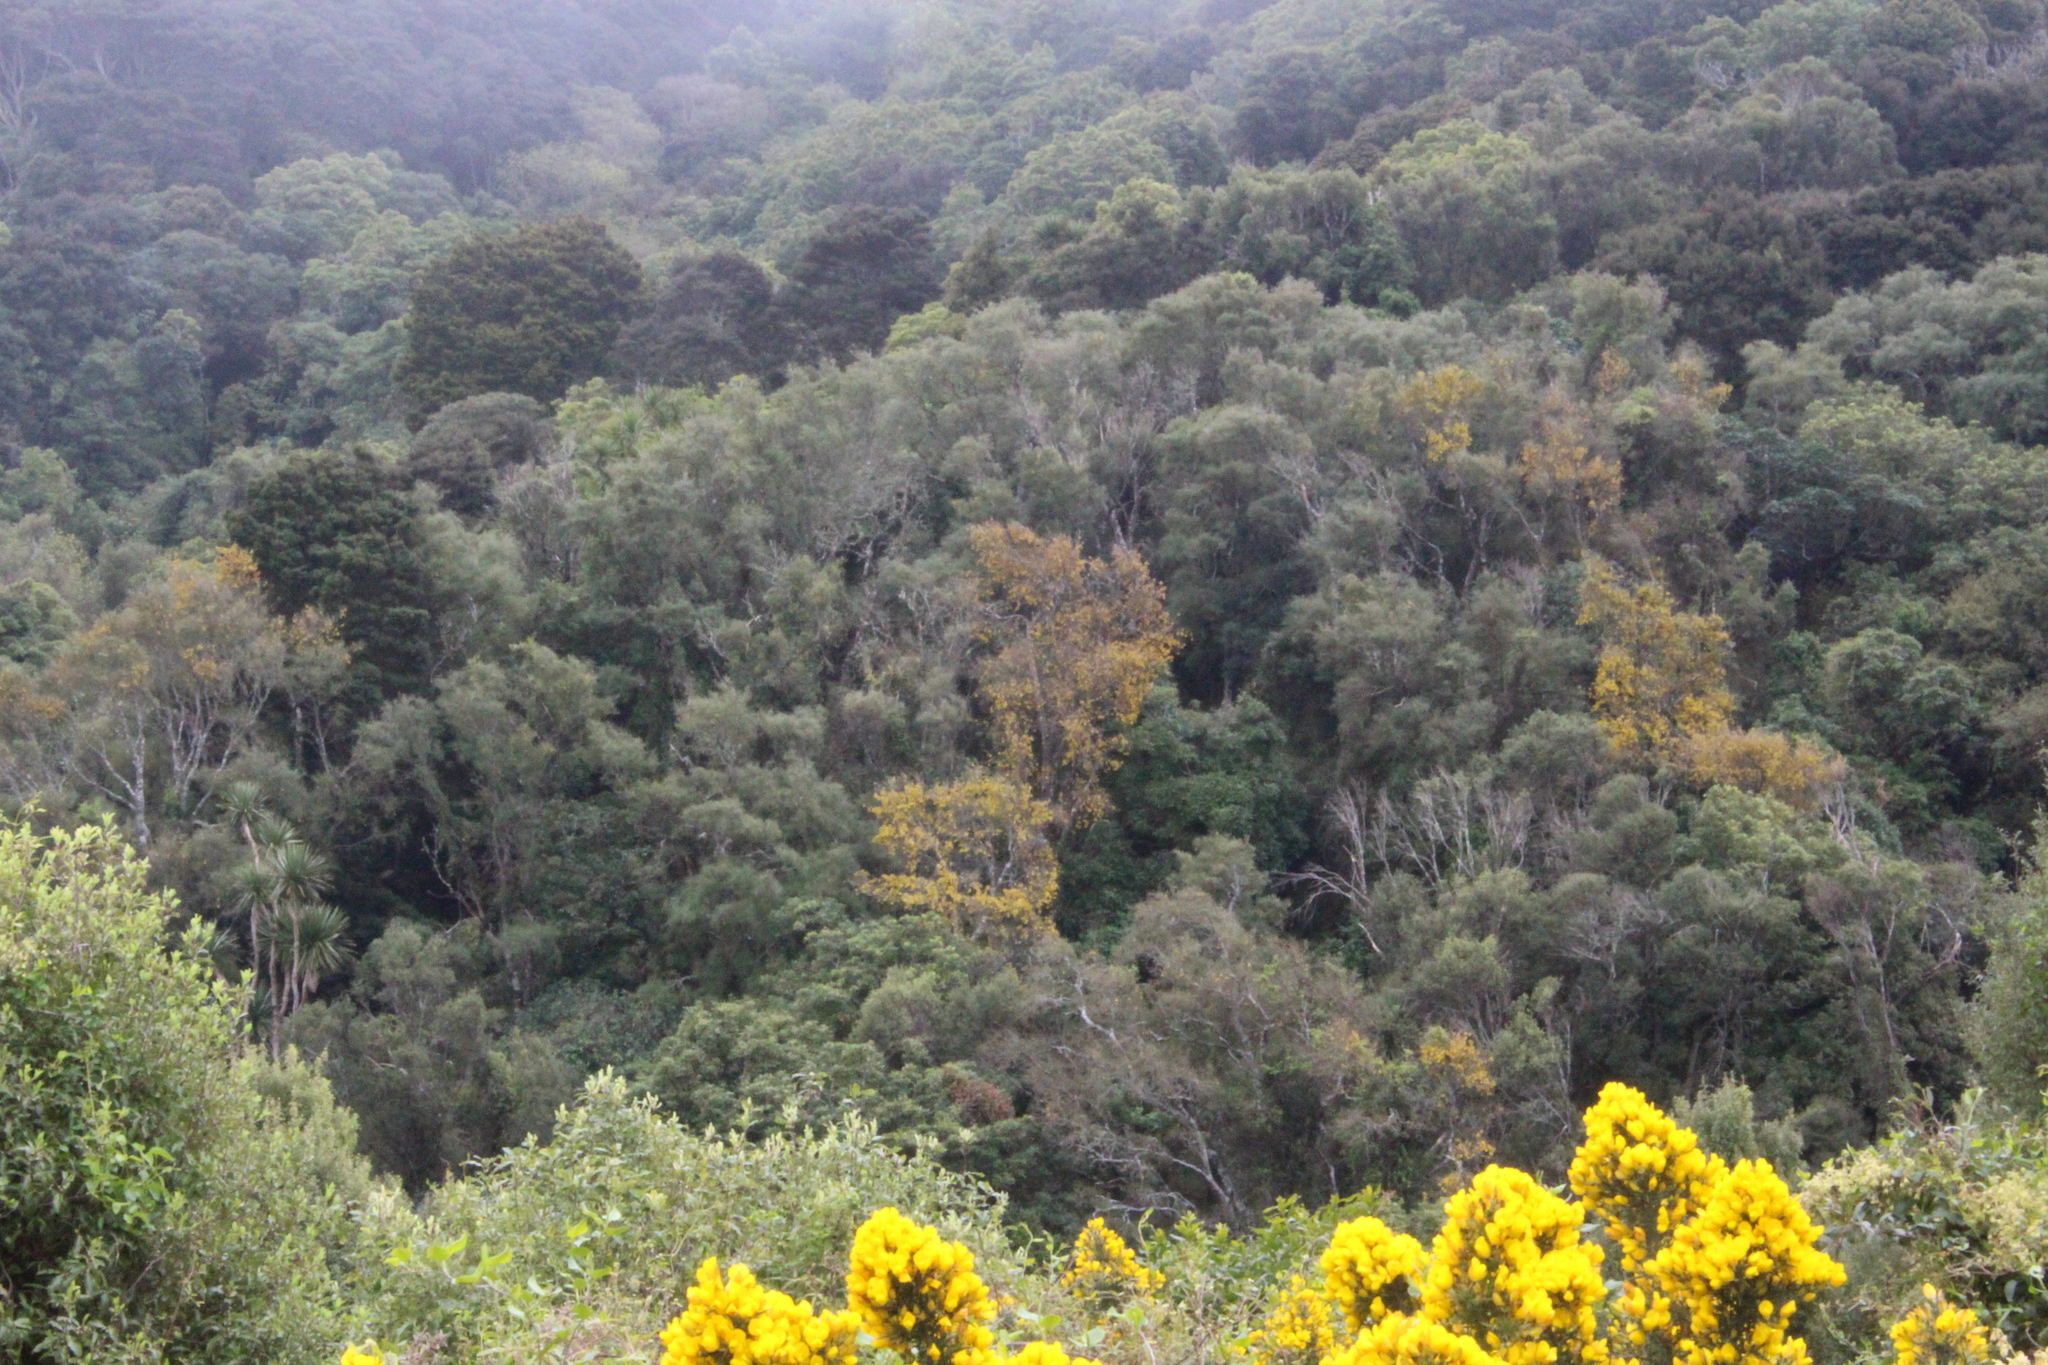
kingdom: Plantae
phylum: Tracheophyta
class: Magnoliopsida
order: Fabales
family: Fabaceae
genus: Sophora
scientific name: Sophora microphylla
